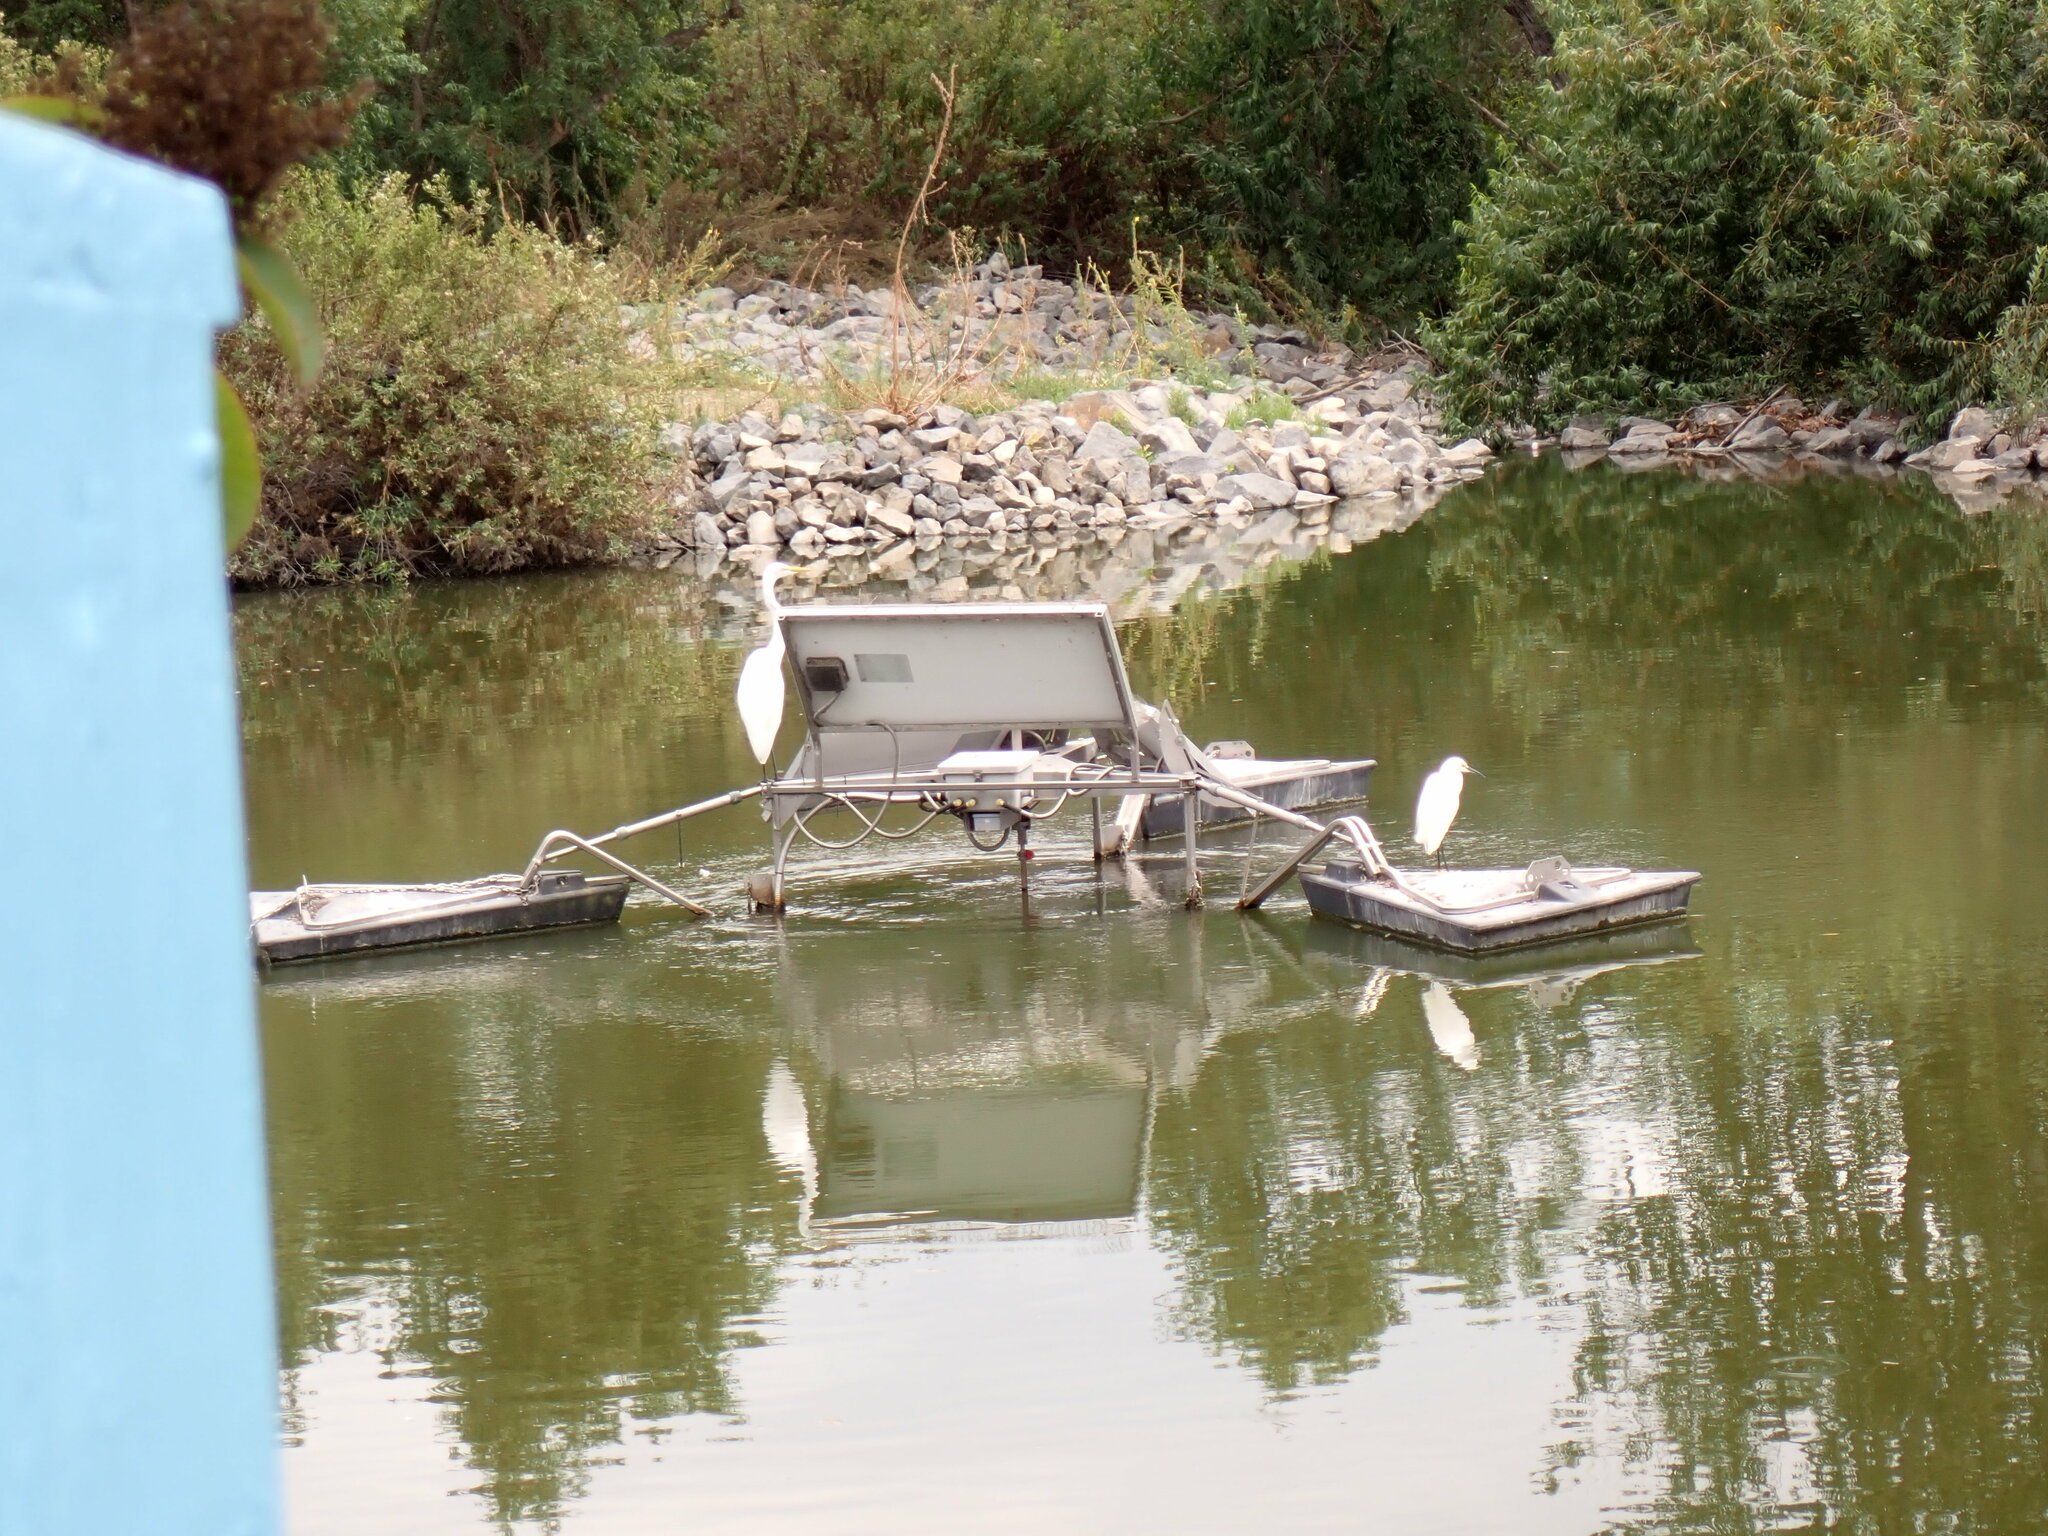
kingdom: Animalia
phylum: Chordata
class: Aves
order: Pelecaniformes
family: Ardeidae
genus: Ardea
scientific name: Ardea alba
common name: Great egret
